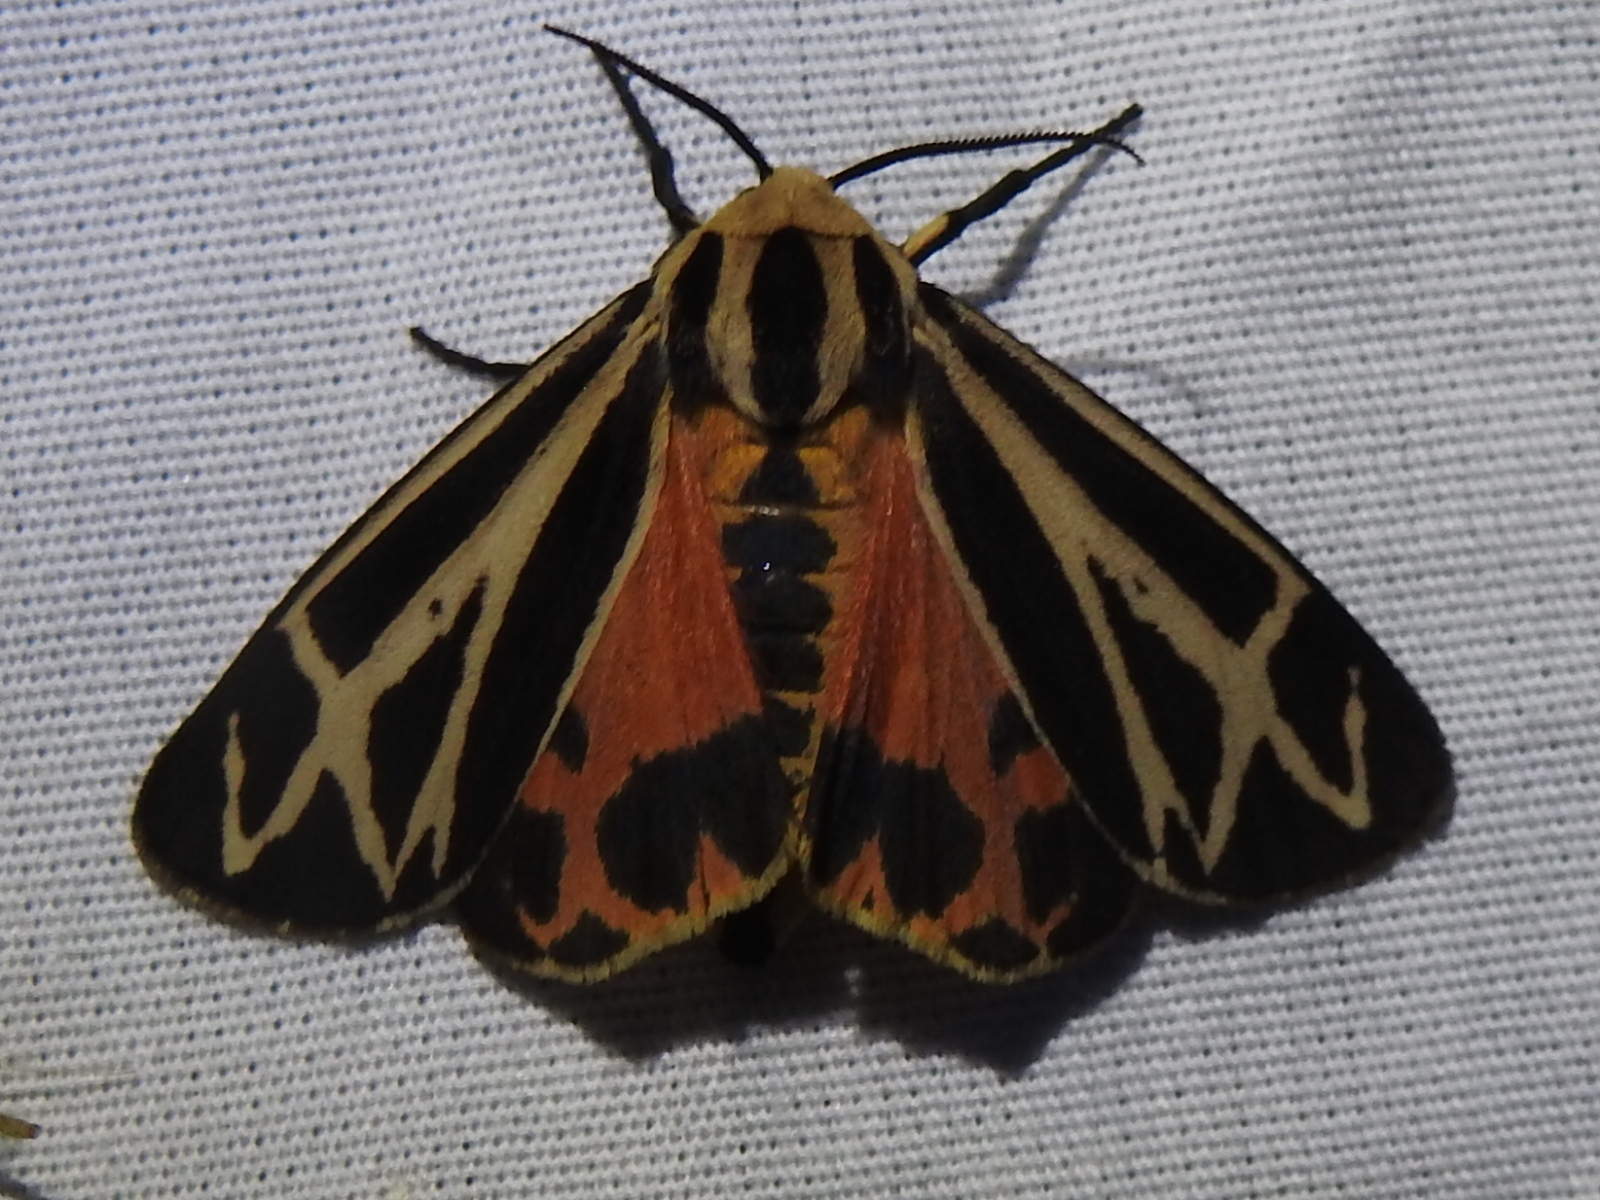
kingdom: Animalia
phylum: Arthropoda
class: Insecta
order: Lepidoptera
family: Erebidae
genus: Apantesis
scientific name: Apantesis carlotta
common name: Carlotta's tiger moth
